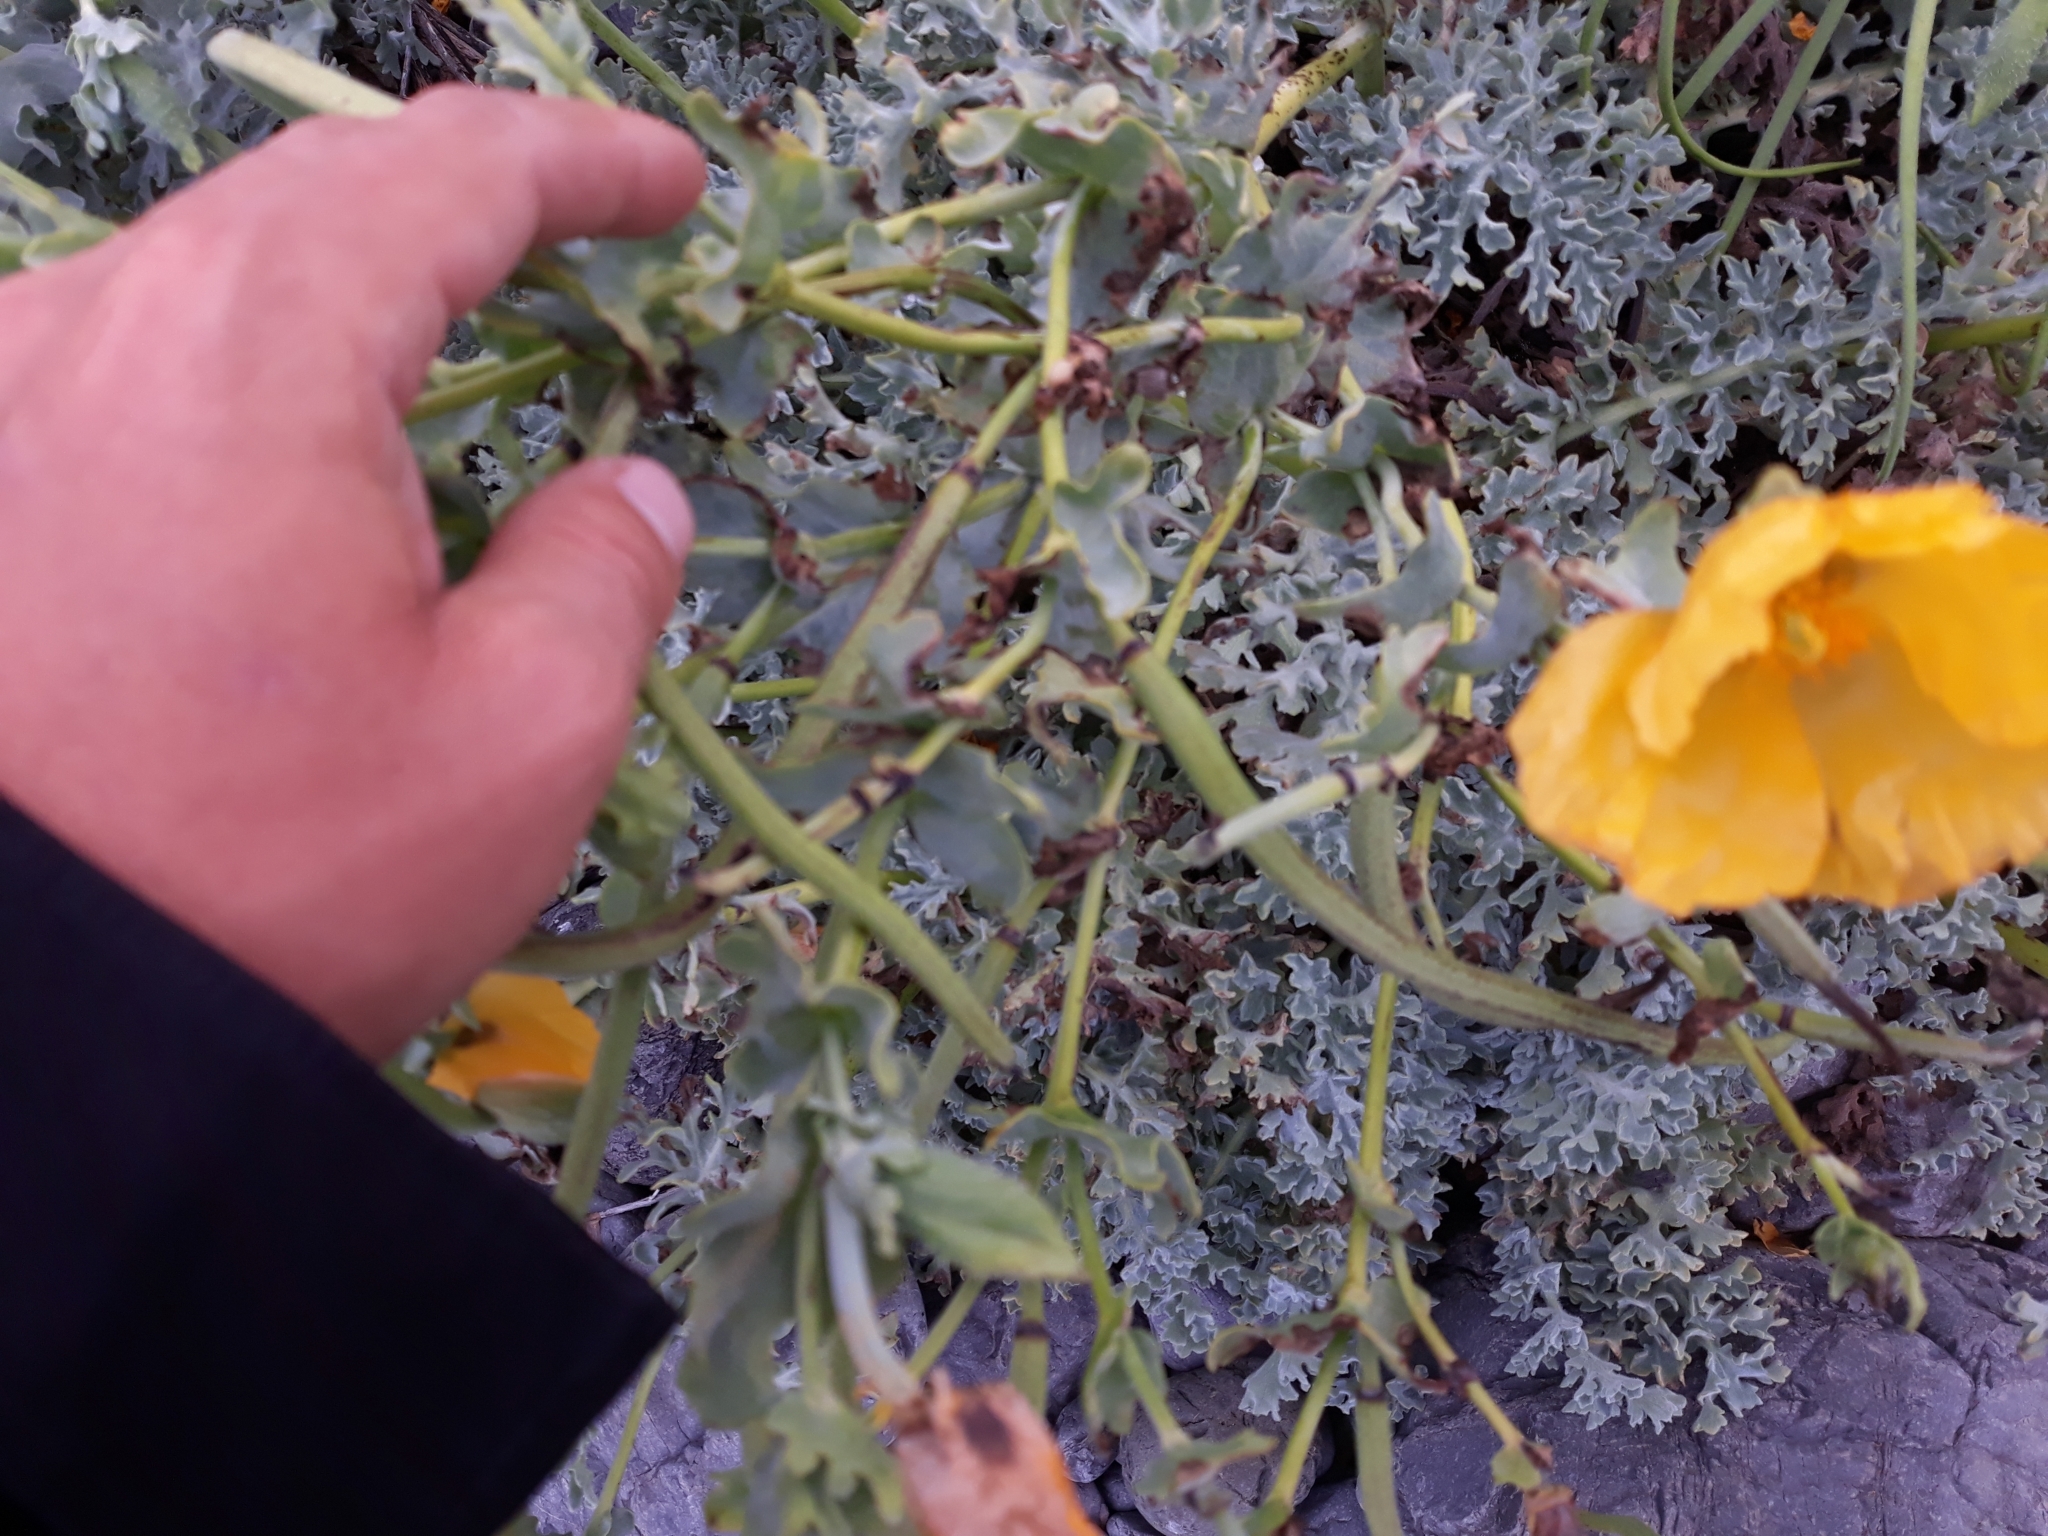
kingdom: Plantae
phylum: Tracheophyta
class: Magnoliopsida
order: Ranunculales
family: Papaveraceae
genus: Glaucium
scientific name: Glaucium flavum
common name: Yellow horned-poppy
